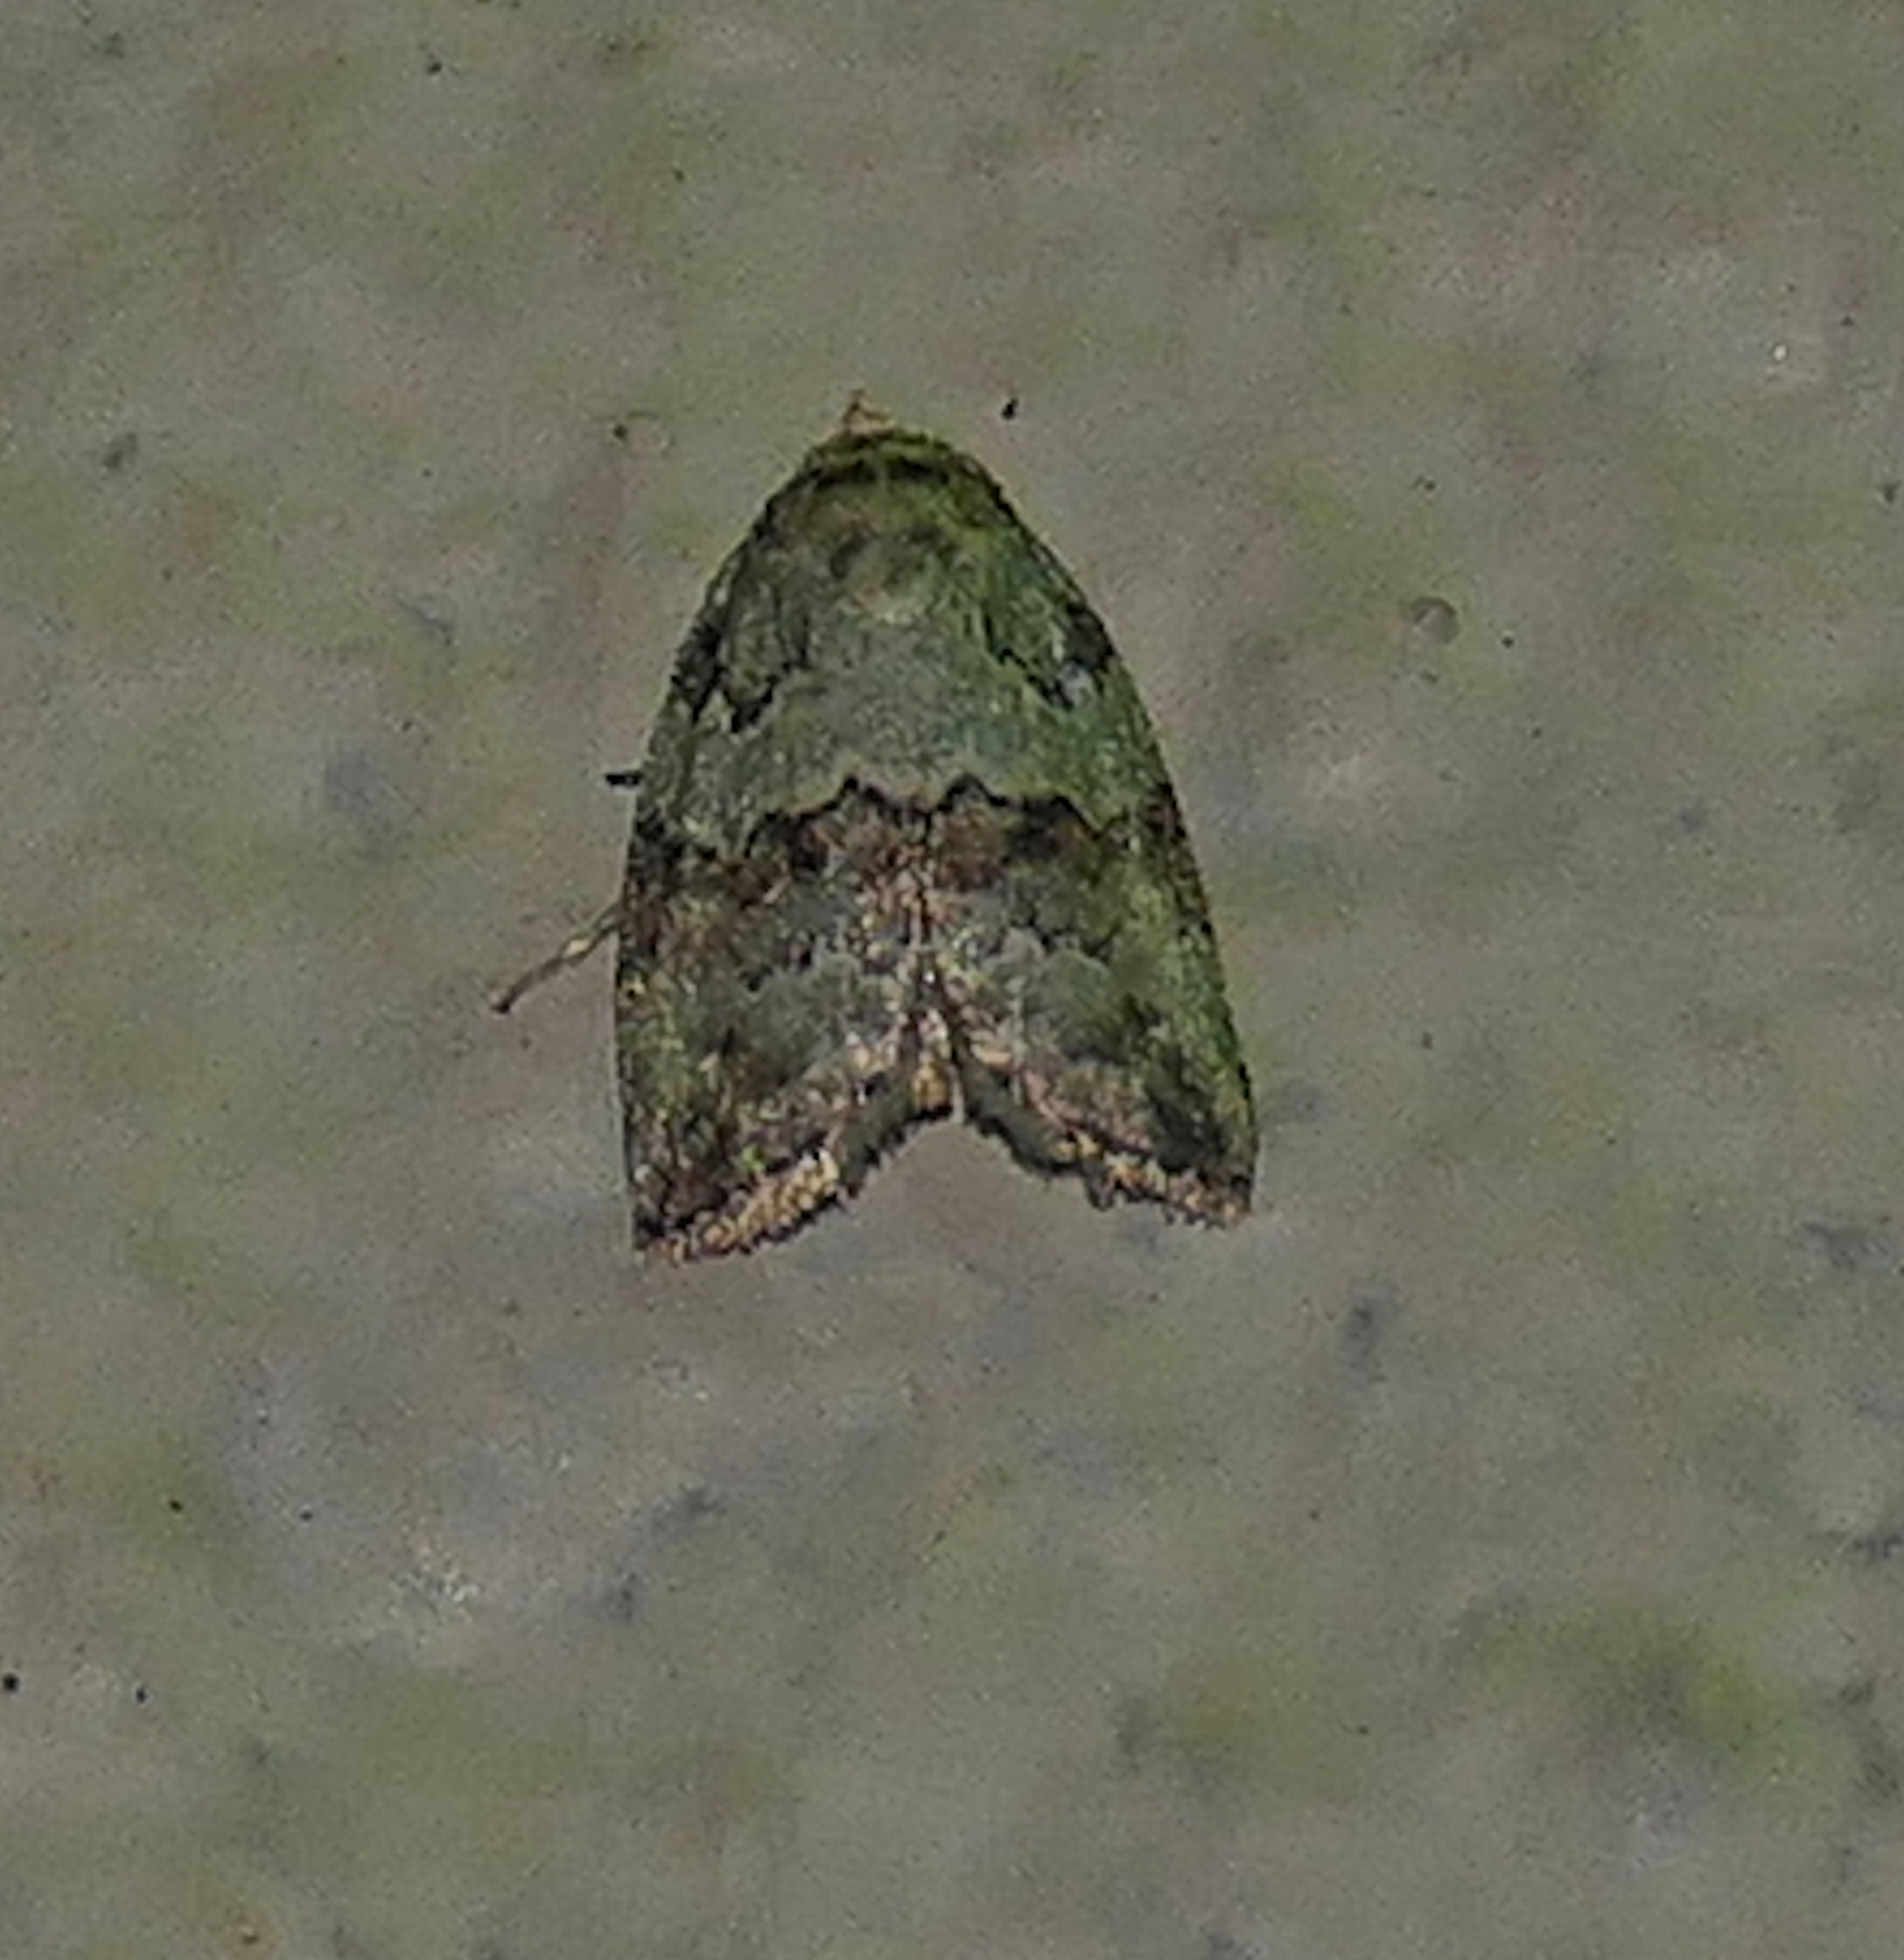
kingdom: Animalia
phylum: Arthropoda
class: Insecta
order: Lepidoptera
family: Nolidae
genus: Afrida
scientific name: Afrida ydatodes
